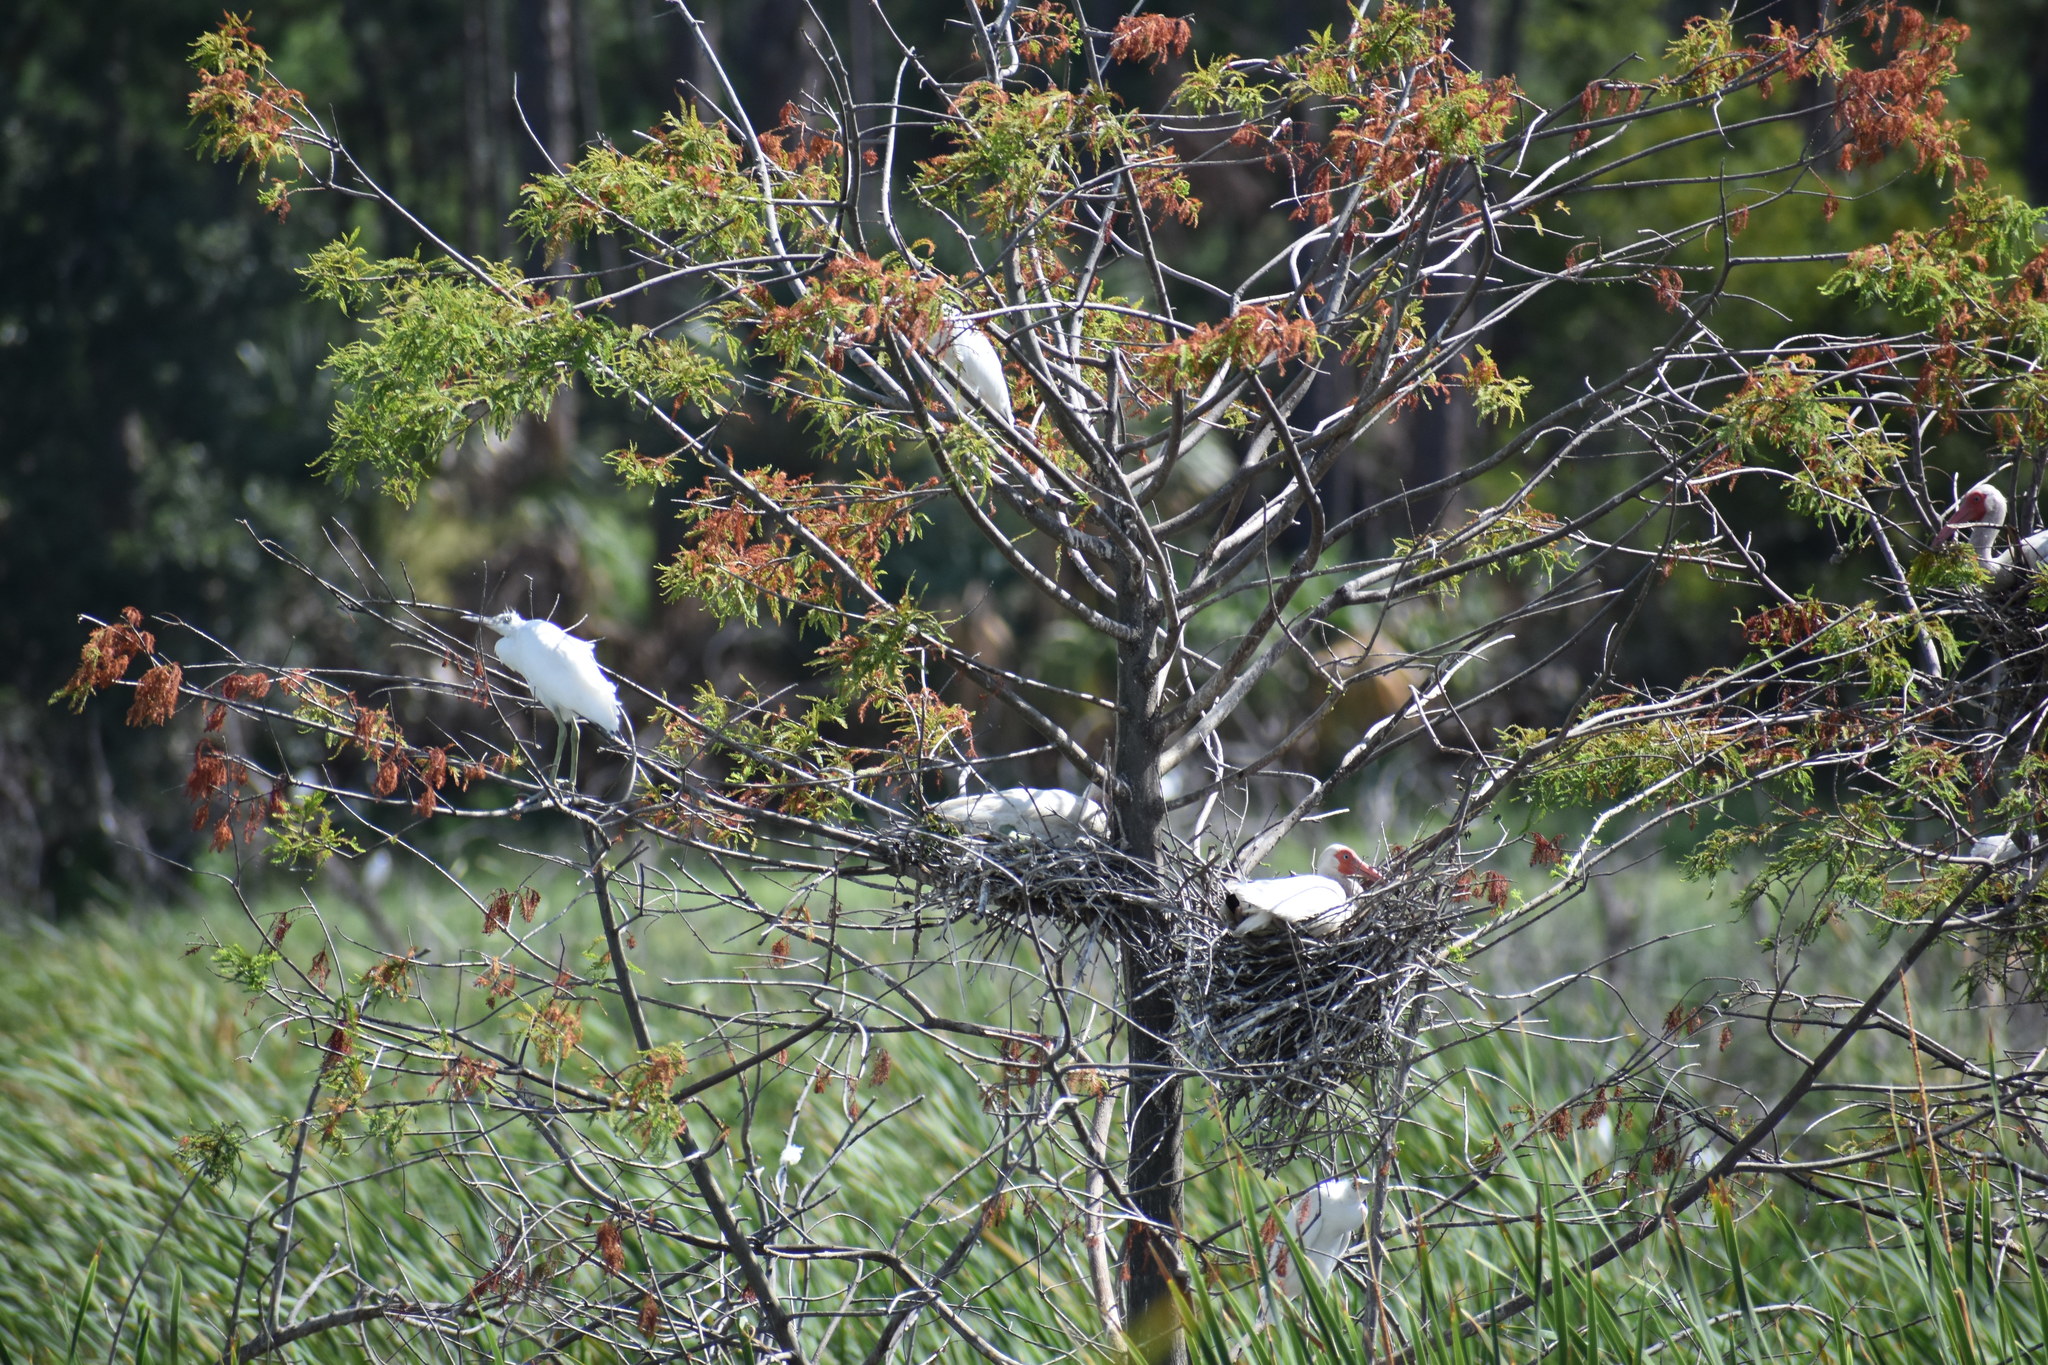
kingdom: Animalia
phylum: Chordata
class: Aves
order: Pelecaniformes
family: Threskiornithidae
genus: Eudocimus
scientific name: Eudocimus albus
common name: White ibis
